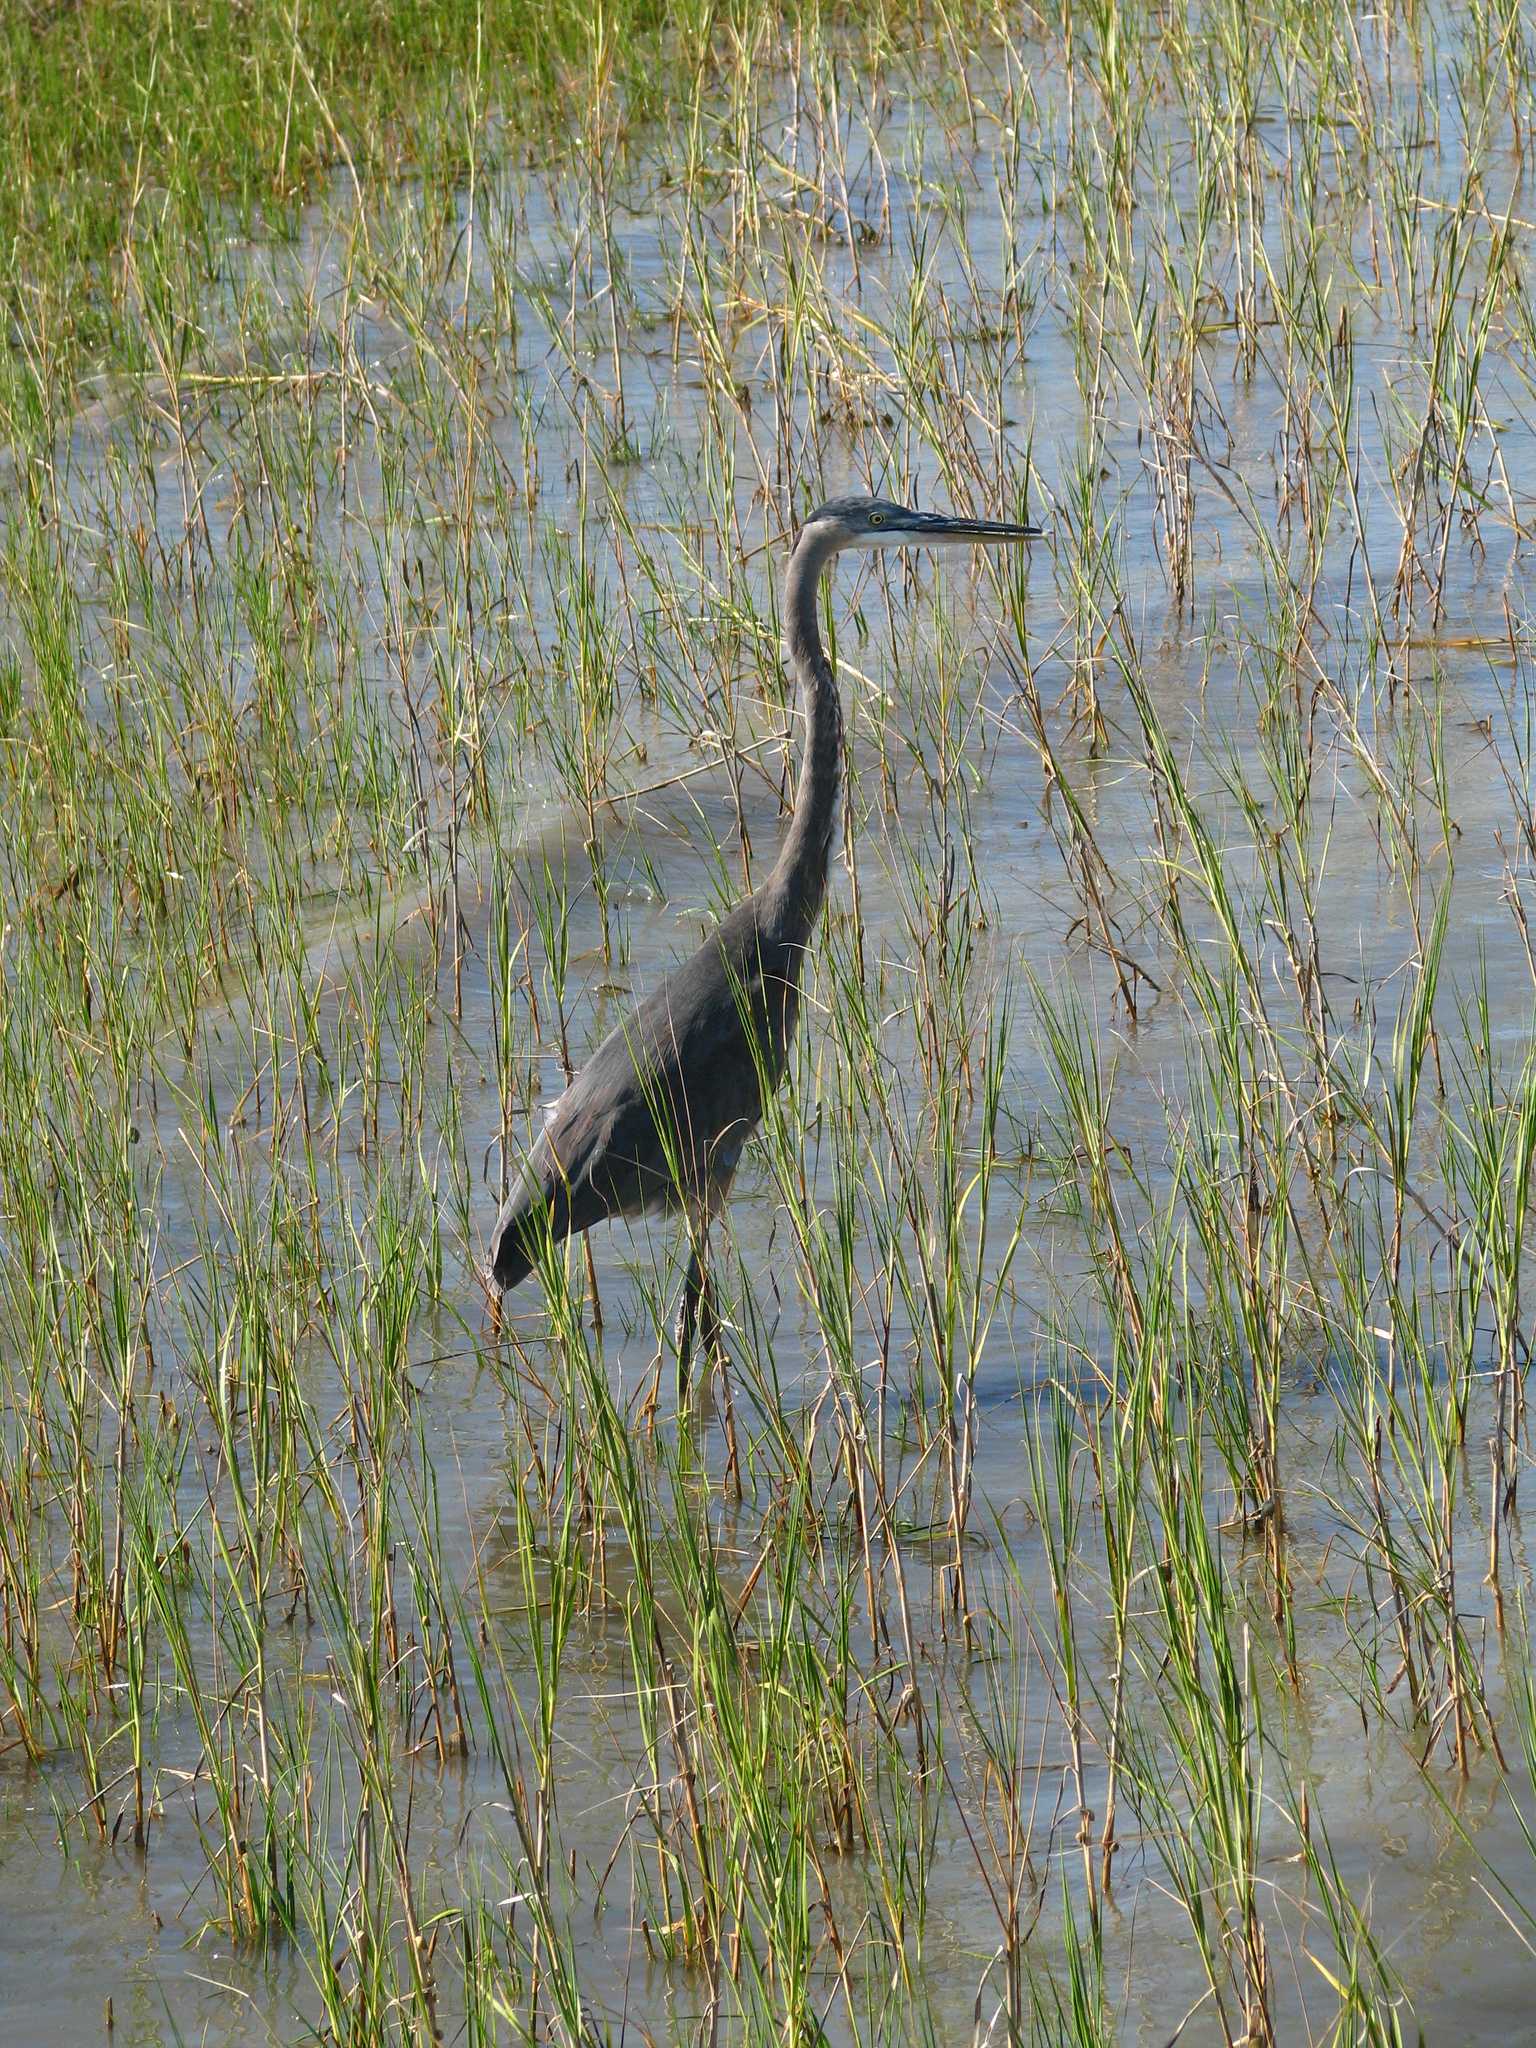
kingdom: Animalia
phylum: Chordata
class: Aves
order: Pelecaniformes
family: Ardeidae
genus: Ardea
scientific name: Ardea herodias
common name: Great blue heron
